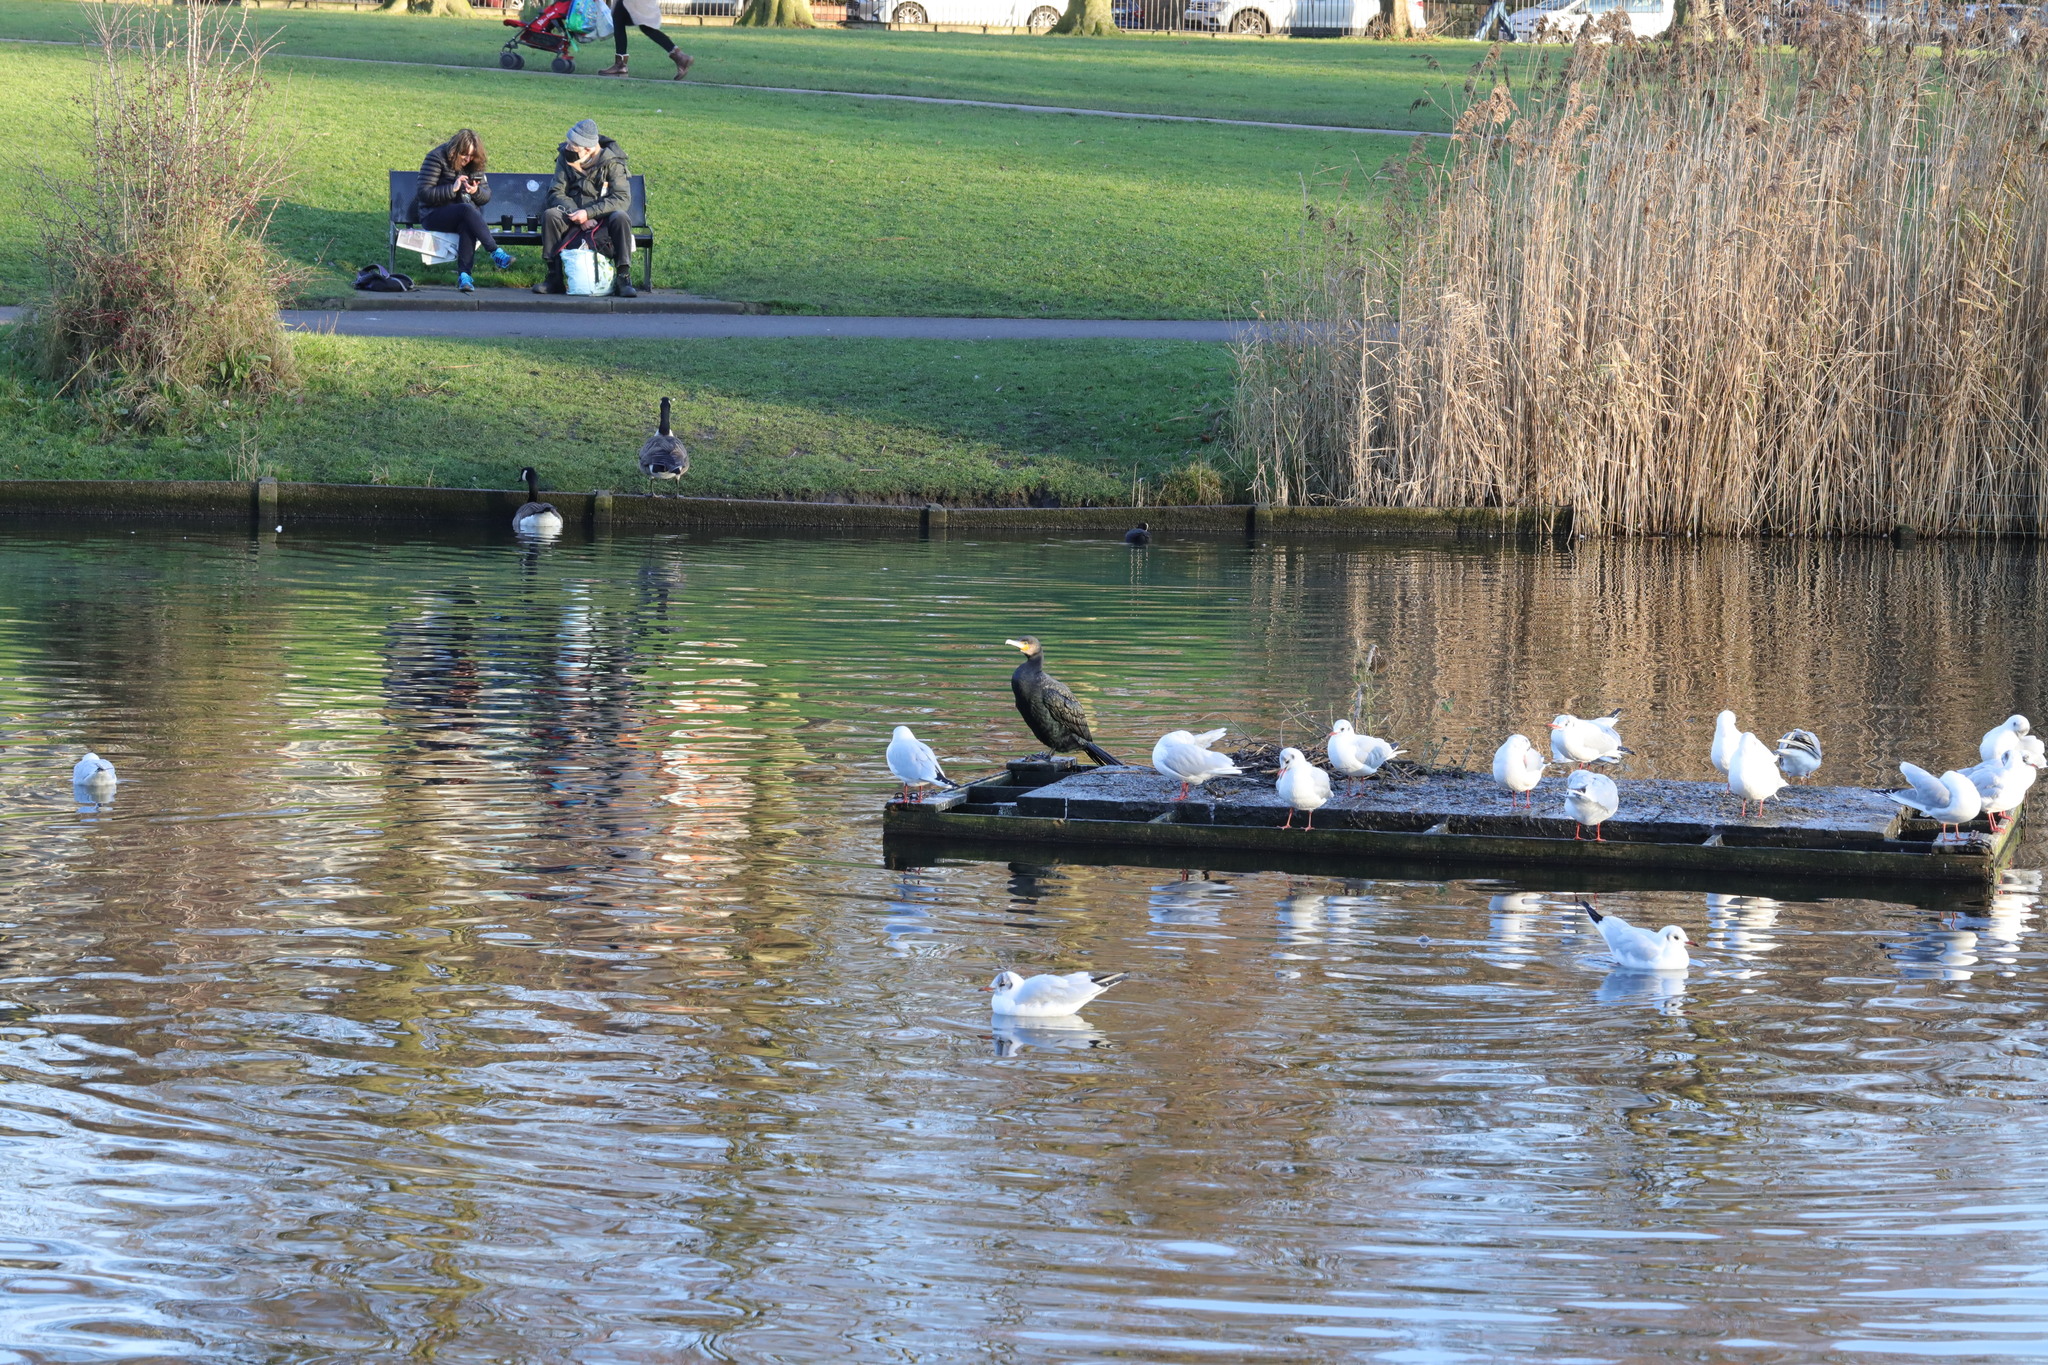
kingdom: Animalia
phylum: Chordata
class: Aves
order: Charadriiformes
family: Laridae
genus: Chroicocephalus
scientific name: Chroicocephalus ridibundus
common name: Black-headed gull
